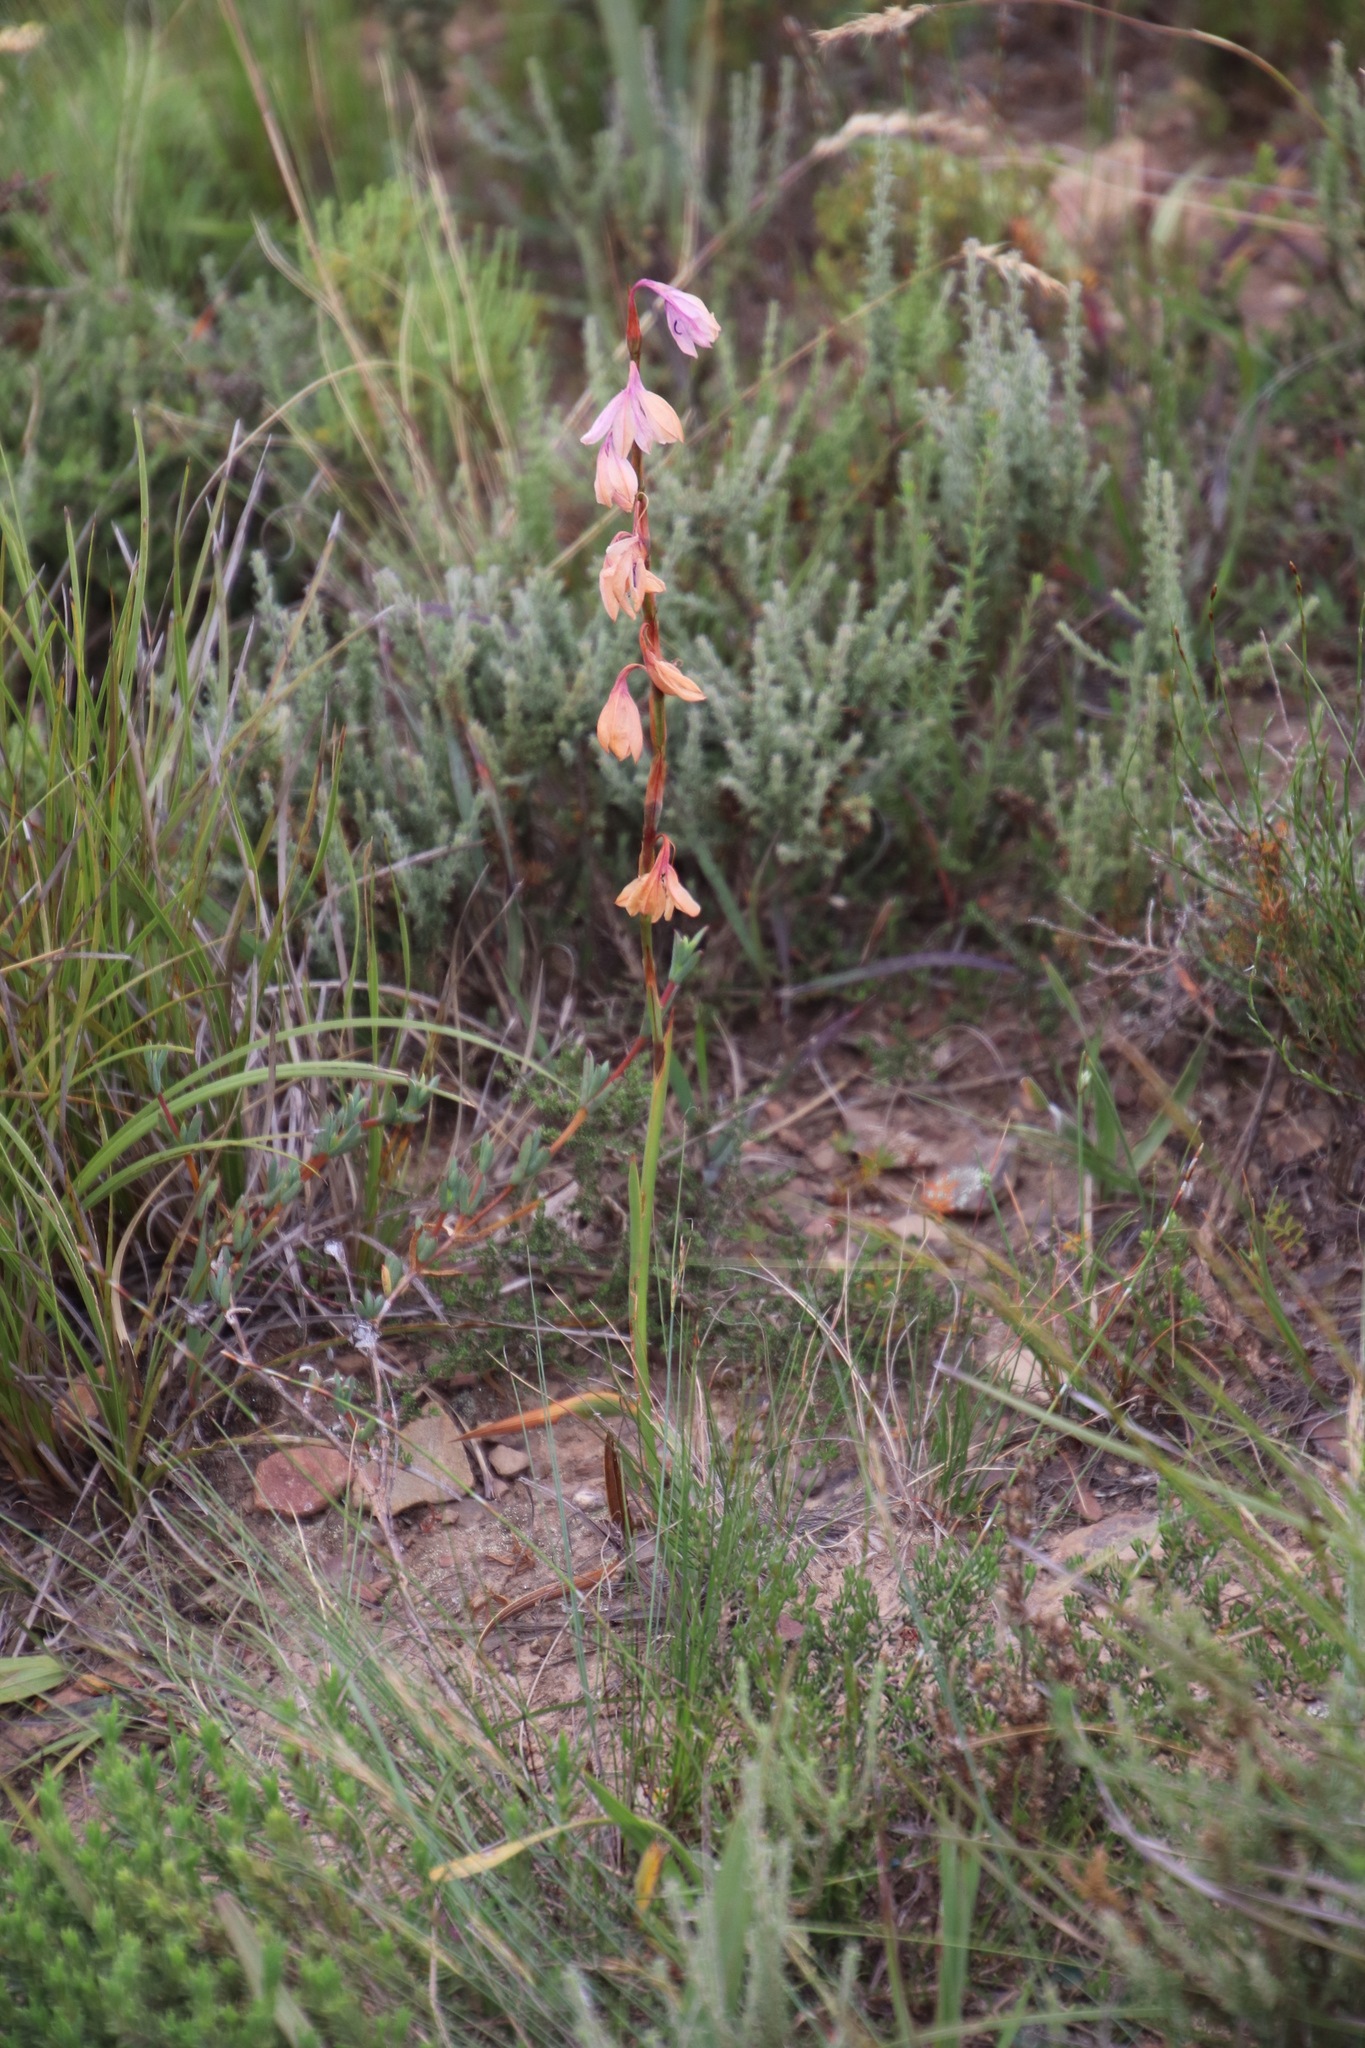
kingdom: Plantae
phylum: Tracheophyta
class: Liliopsida
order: Asparagales
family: Iridaceae
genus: Watsonia
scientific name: Watsonia laccata
